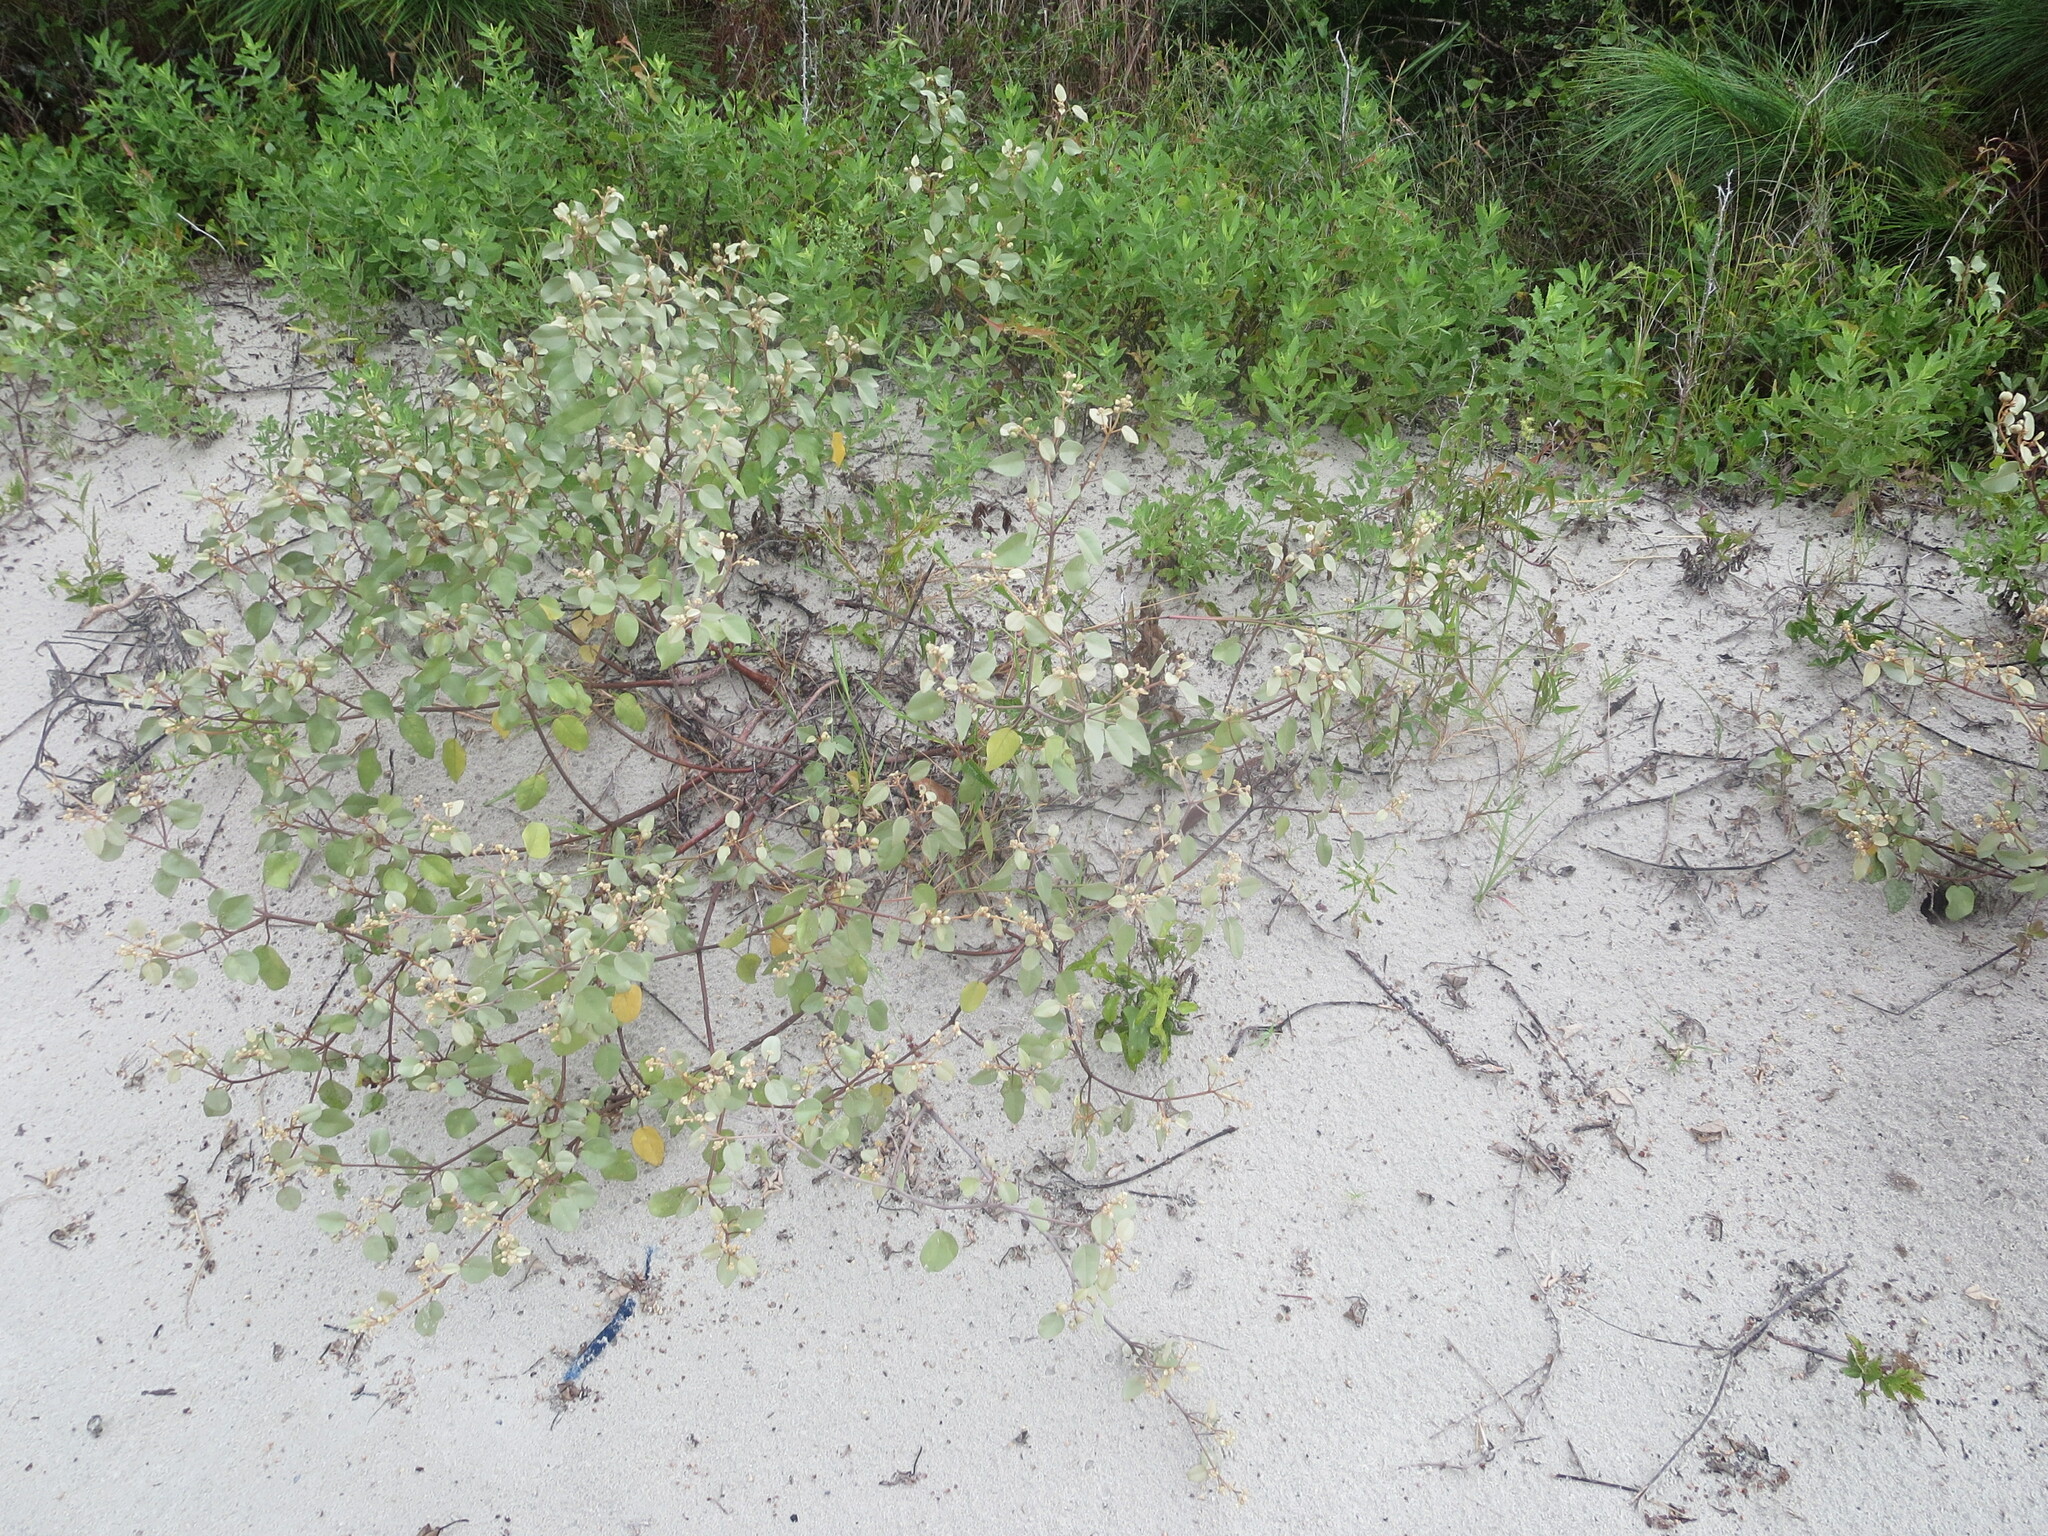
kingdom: Plantae
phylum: Tracheophyta
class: Magnoliopsida
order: Malpighiales
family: Euphorbiaceae
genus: Croton
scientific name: Croton punctatus
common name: Beach-tea
